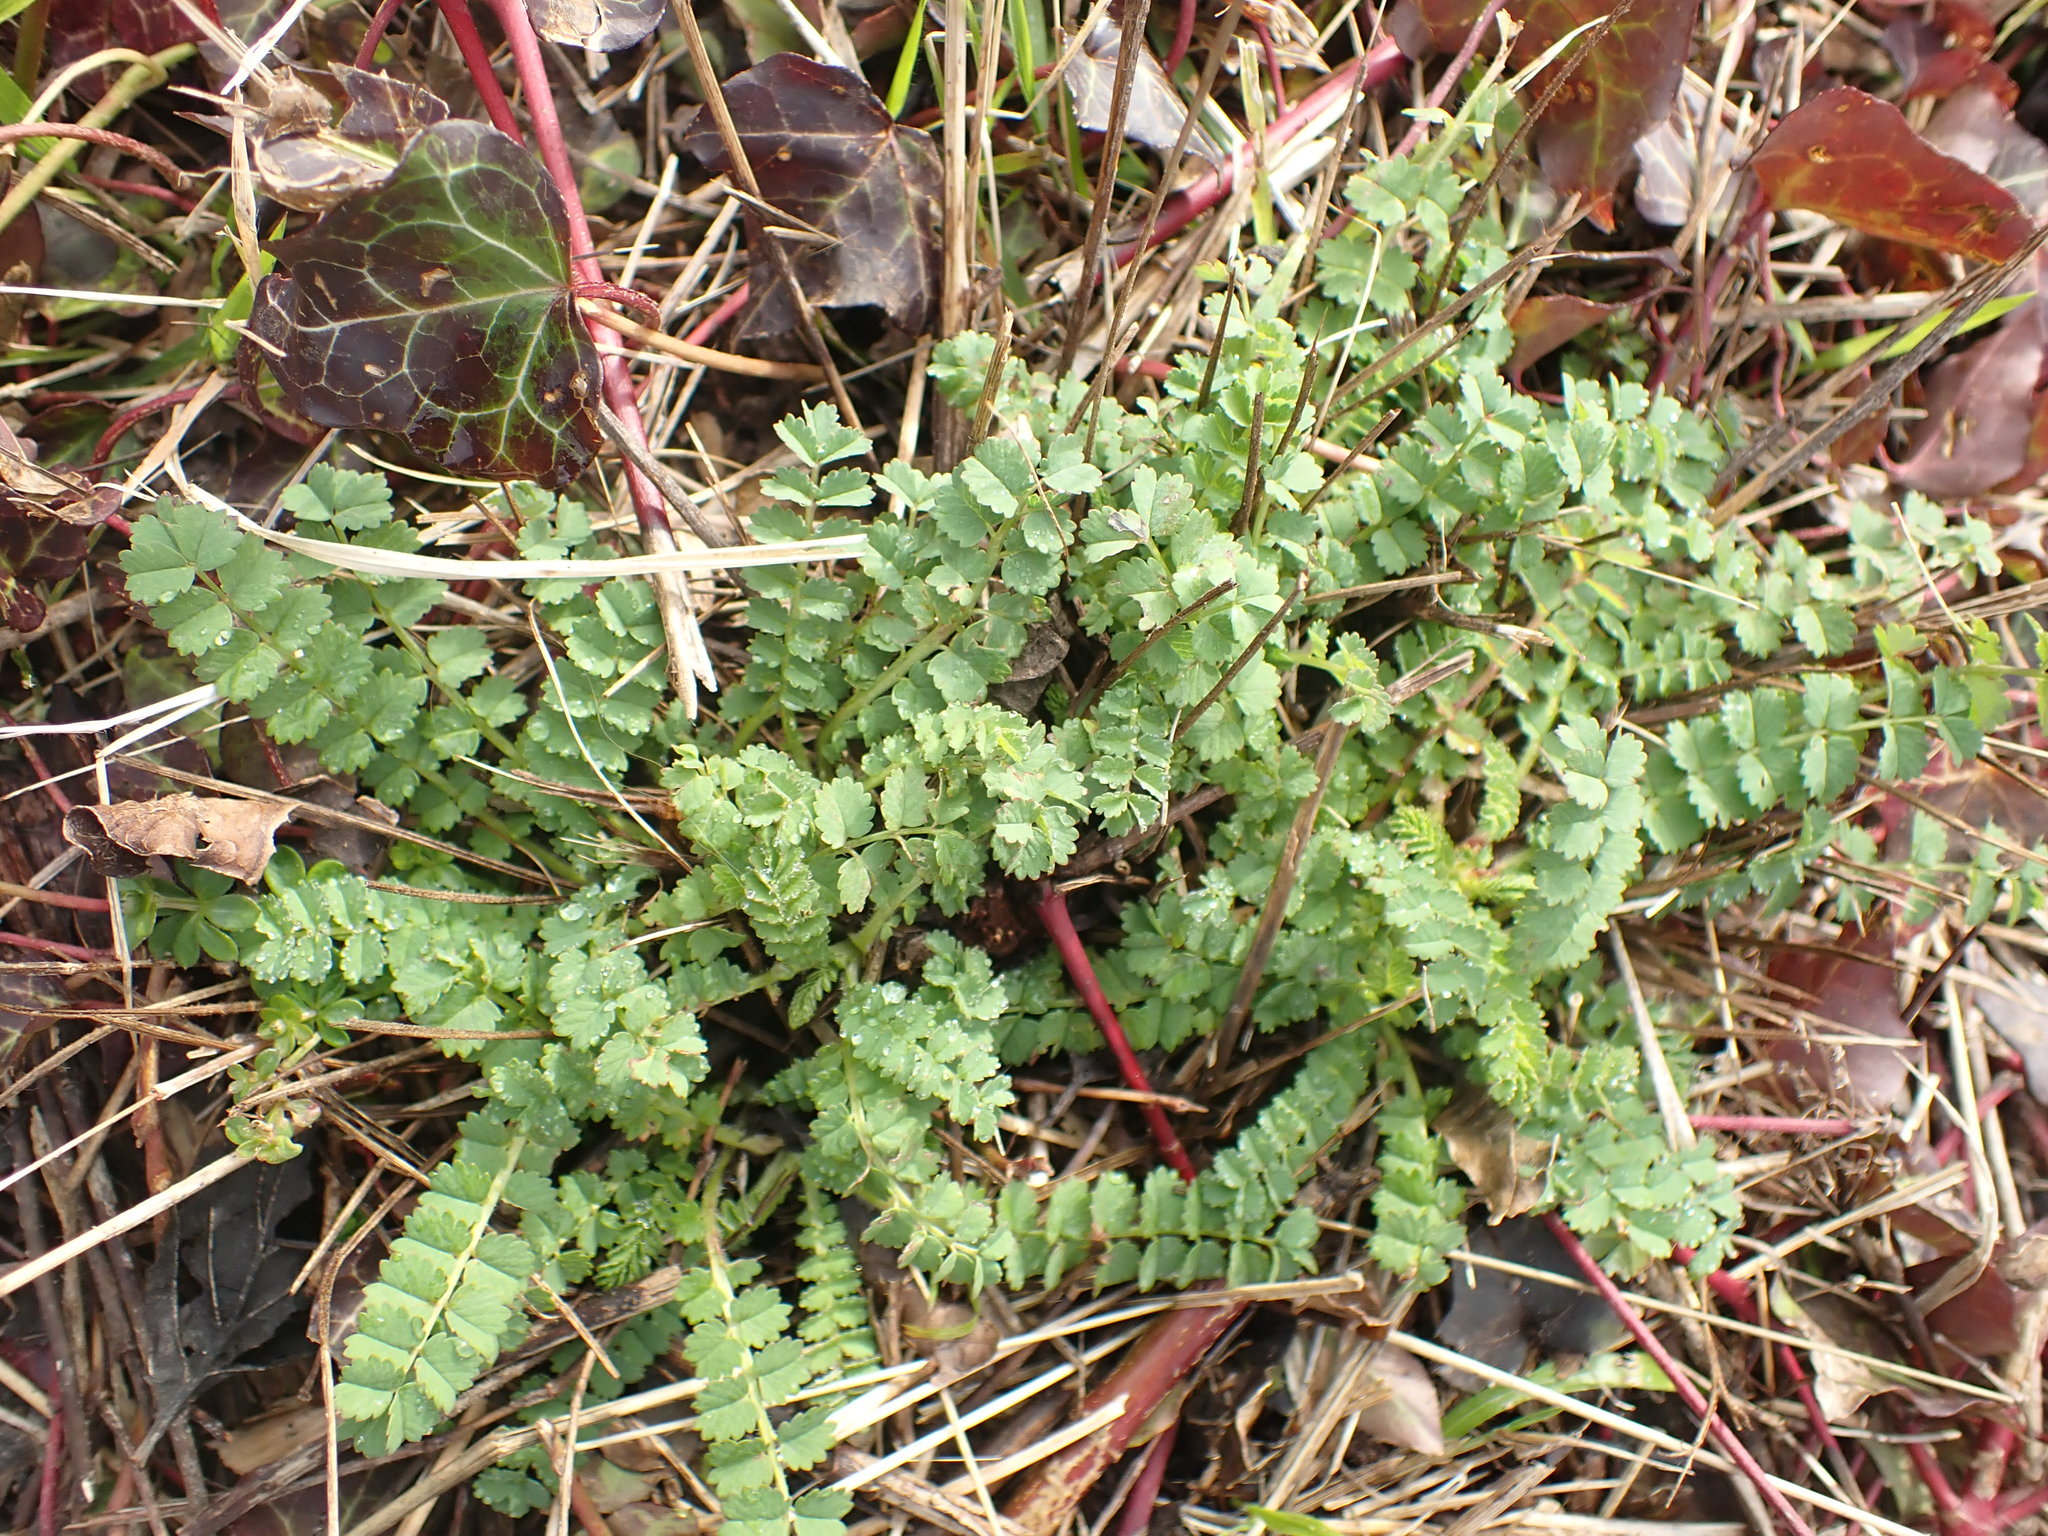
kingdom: Plantae
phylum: Tracheophyta
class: Magnoliopsida
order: Rosales
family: Rosaceae
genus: Poterium
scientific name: Poterium sanguisorba
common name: Salad burnet
